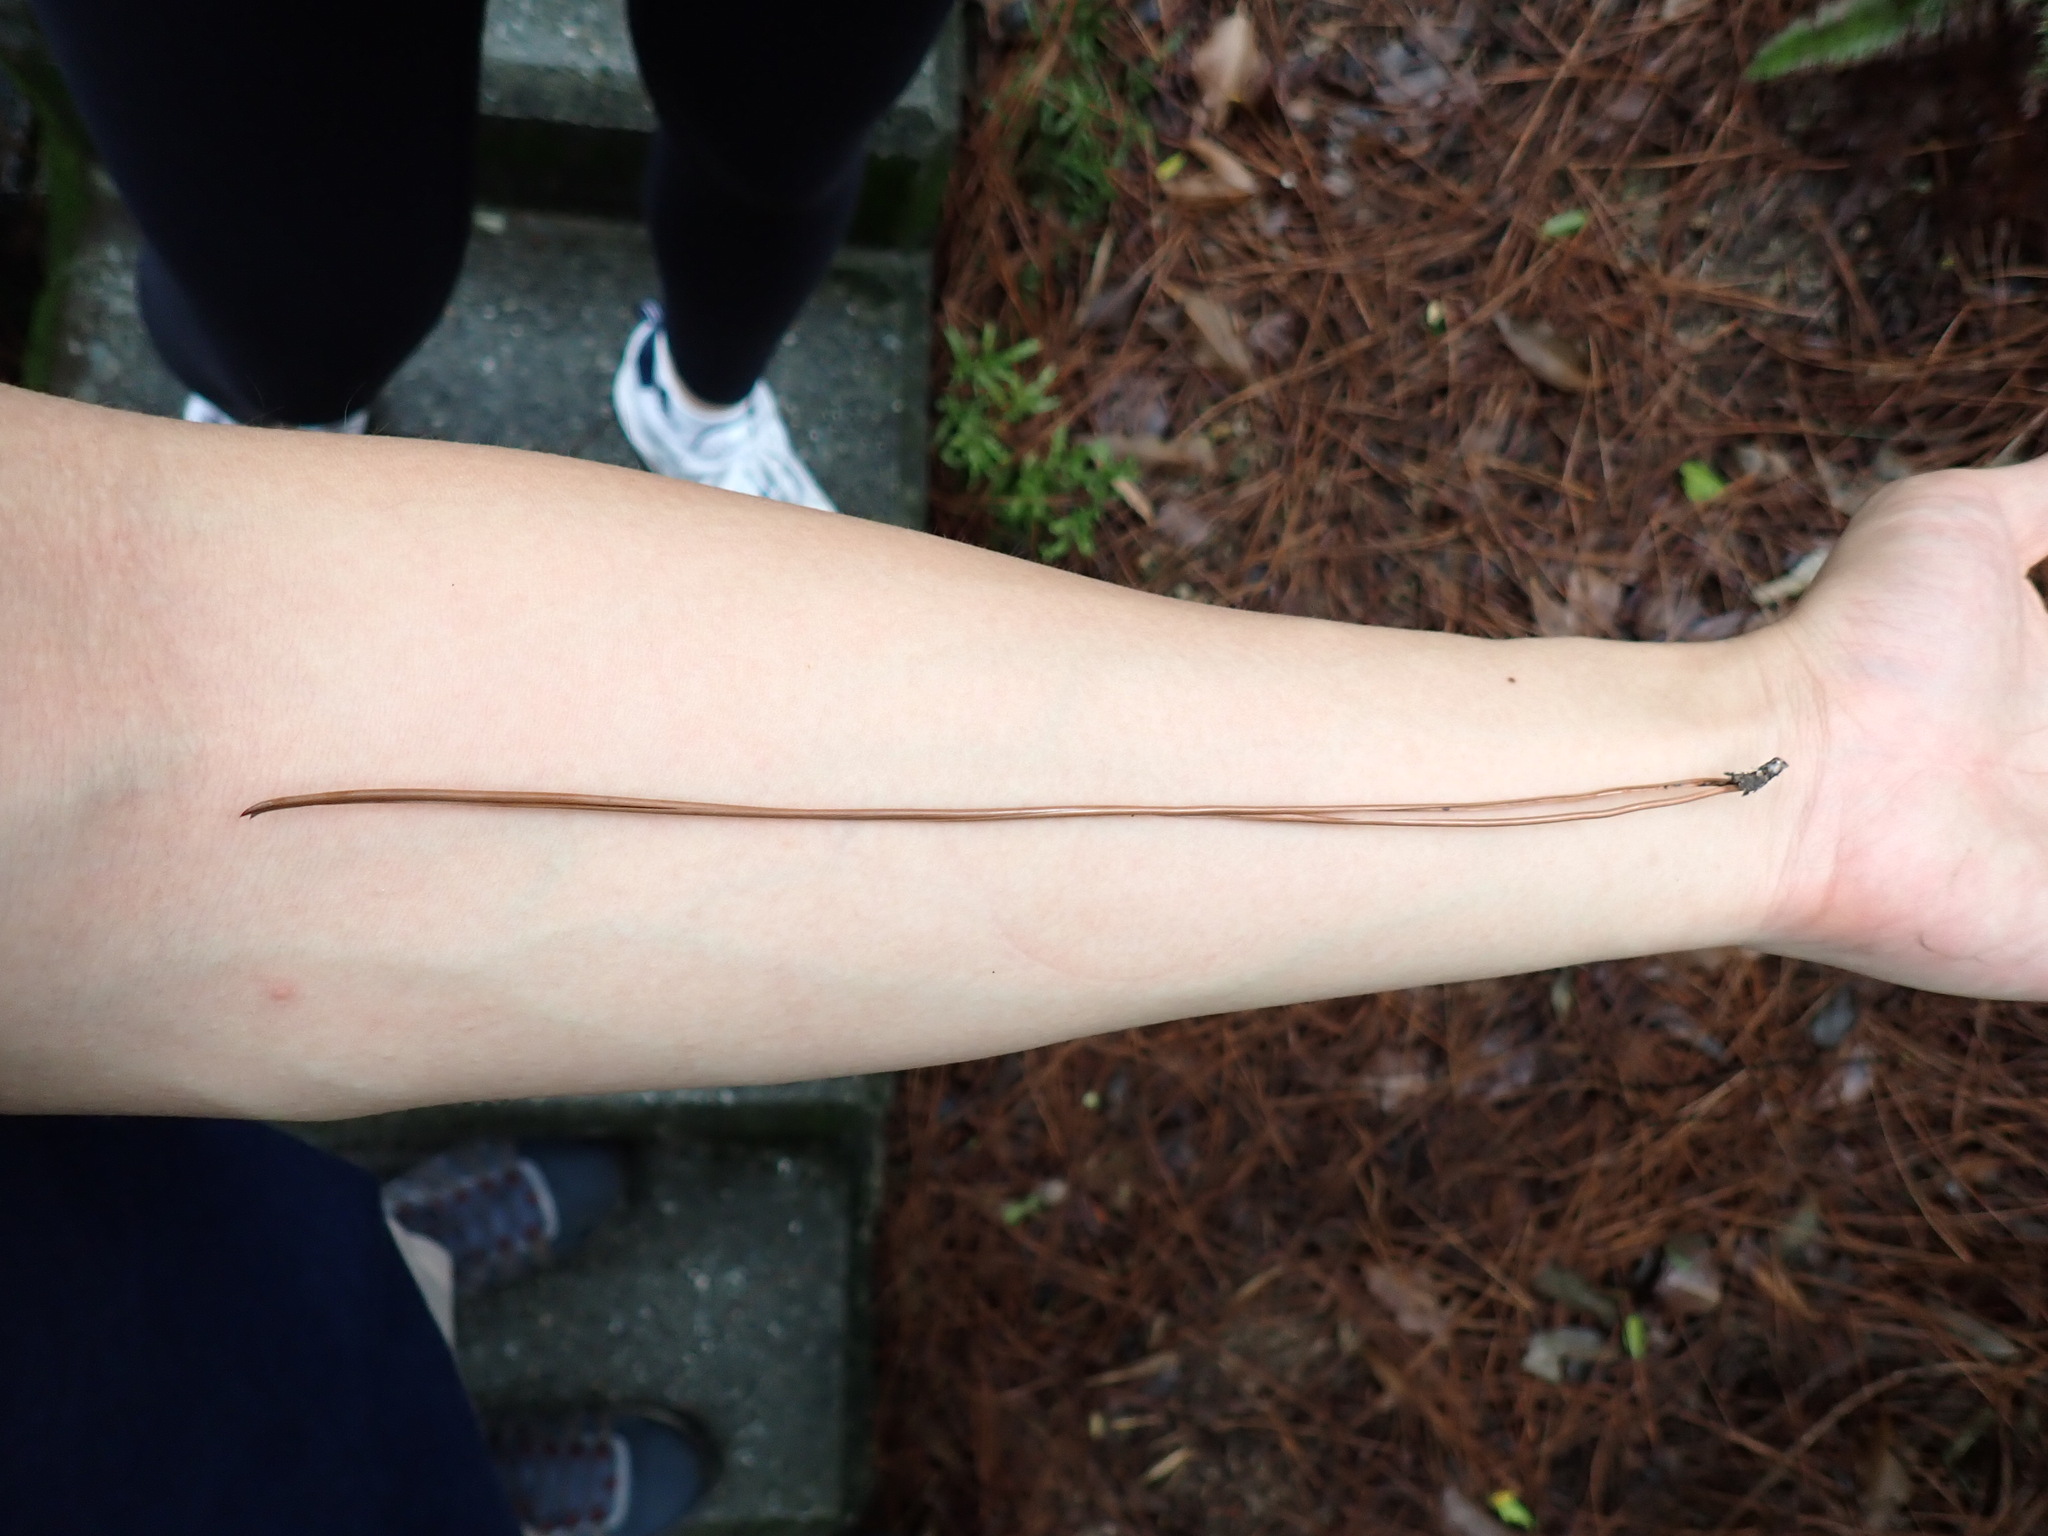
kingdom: Plantae
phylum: Tracheophyta
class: Pinopsida
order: Pinales
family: Pinaceae
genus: Pinus
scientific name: Pinus elliottii
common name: Slash pine
